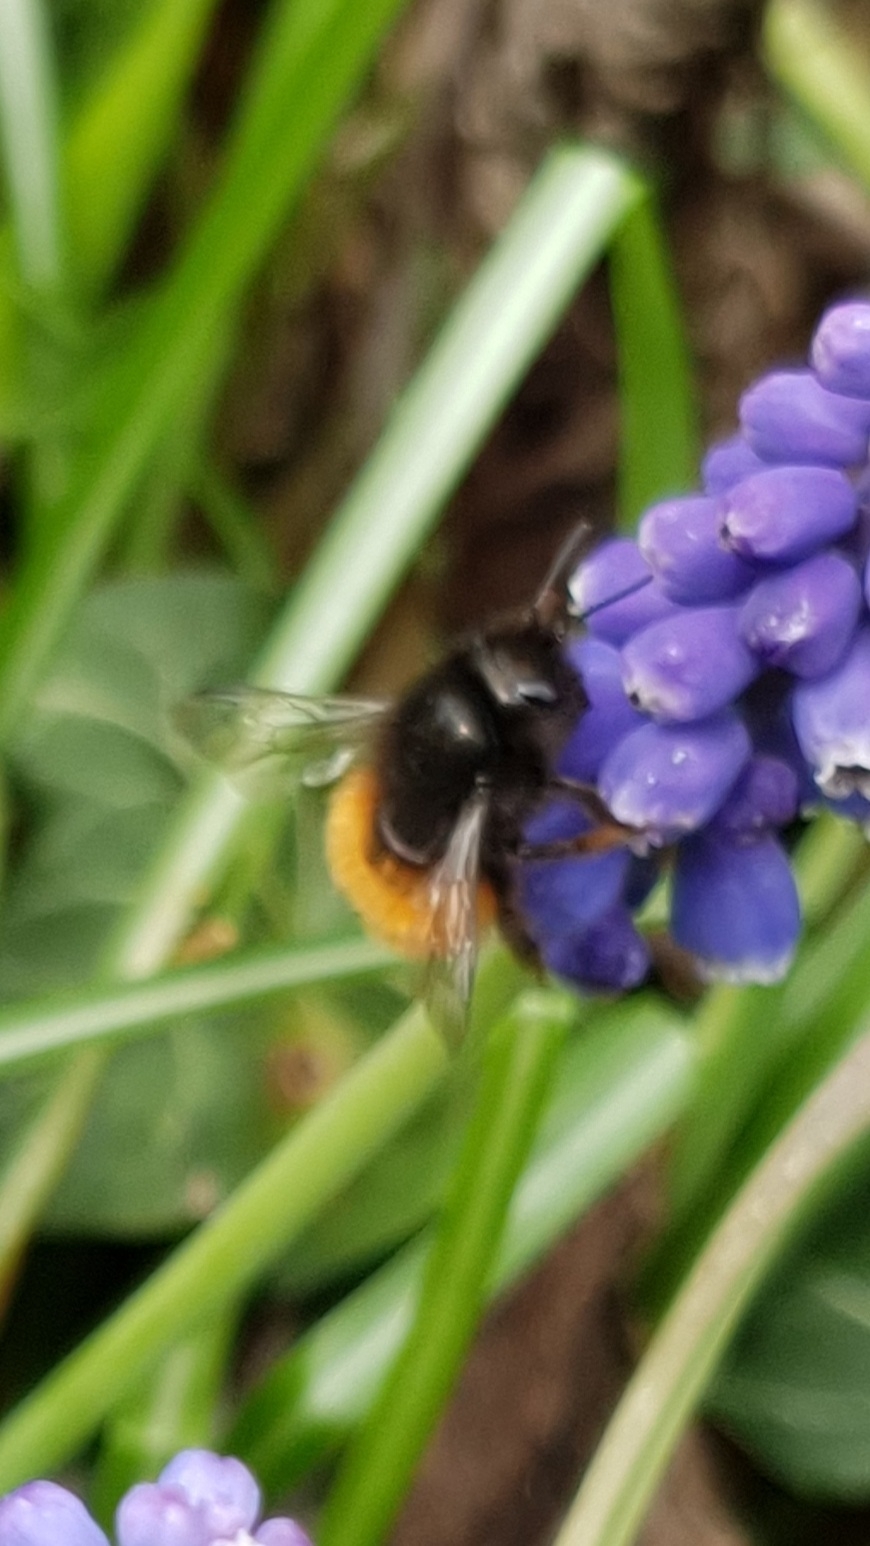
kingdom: Animalia
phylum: Arthropoda
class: Insecta
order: Hymenoptera
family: Megachilidae
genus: Osmia
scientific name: Osmia cornuta
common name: Mason bee
